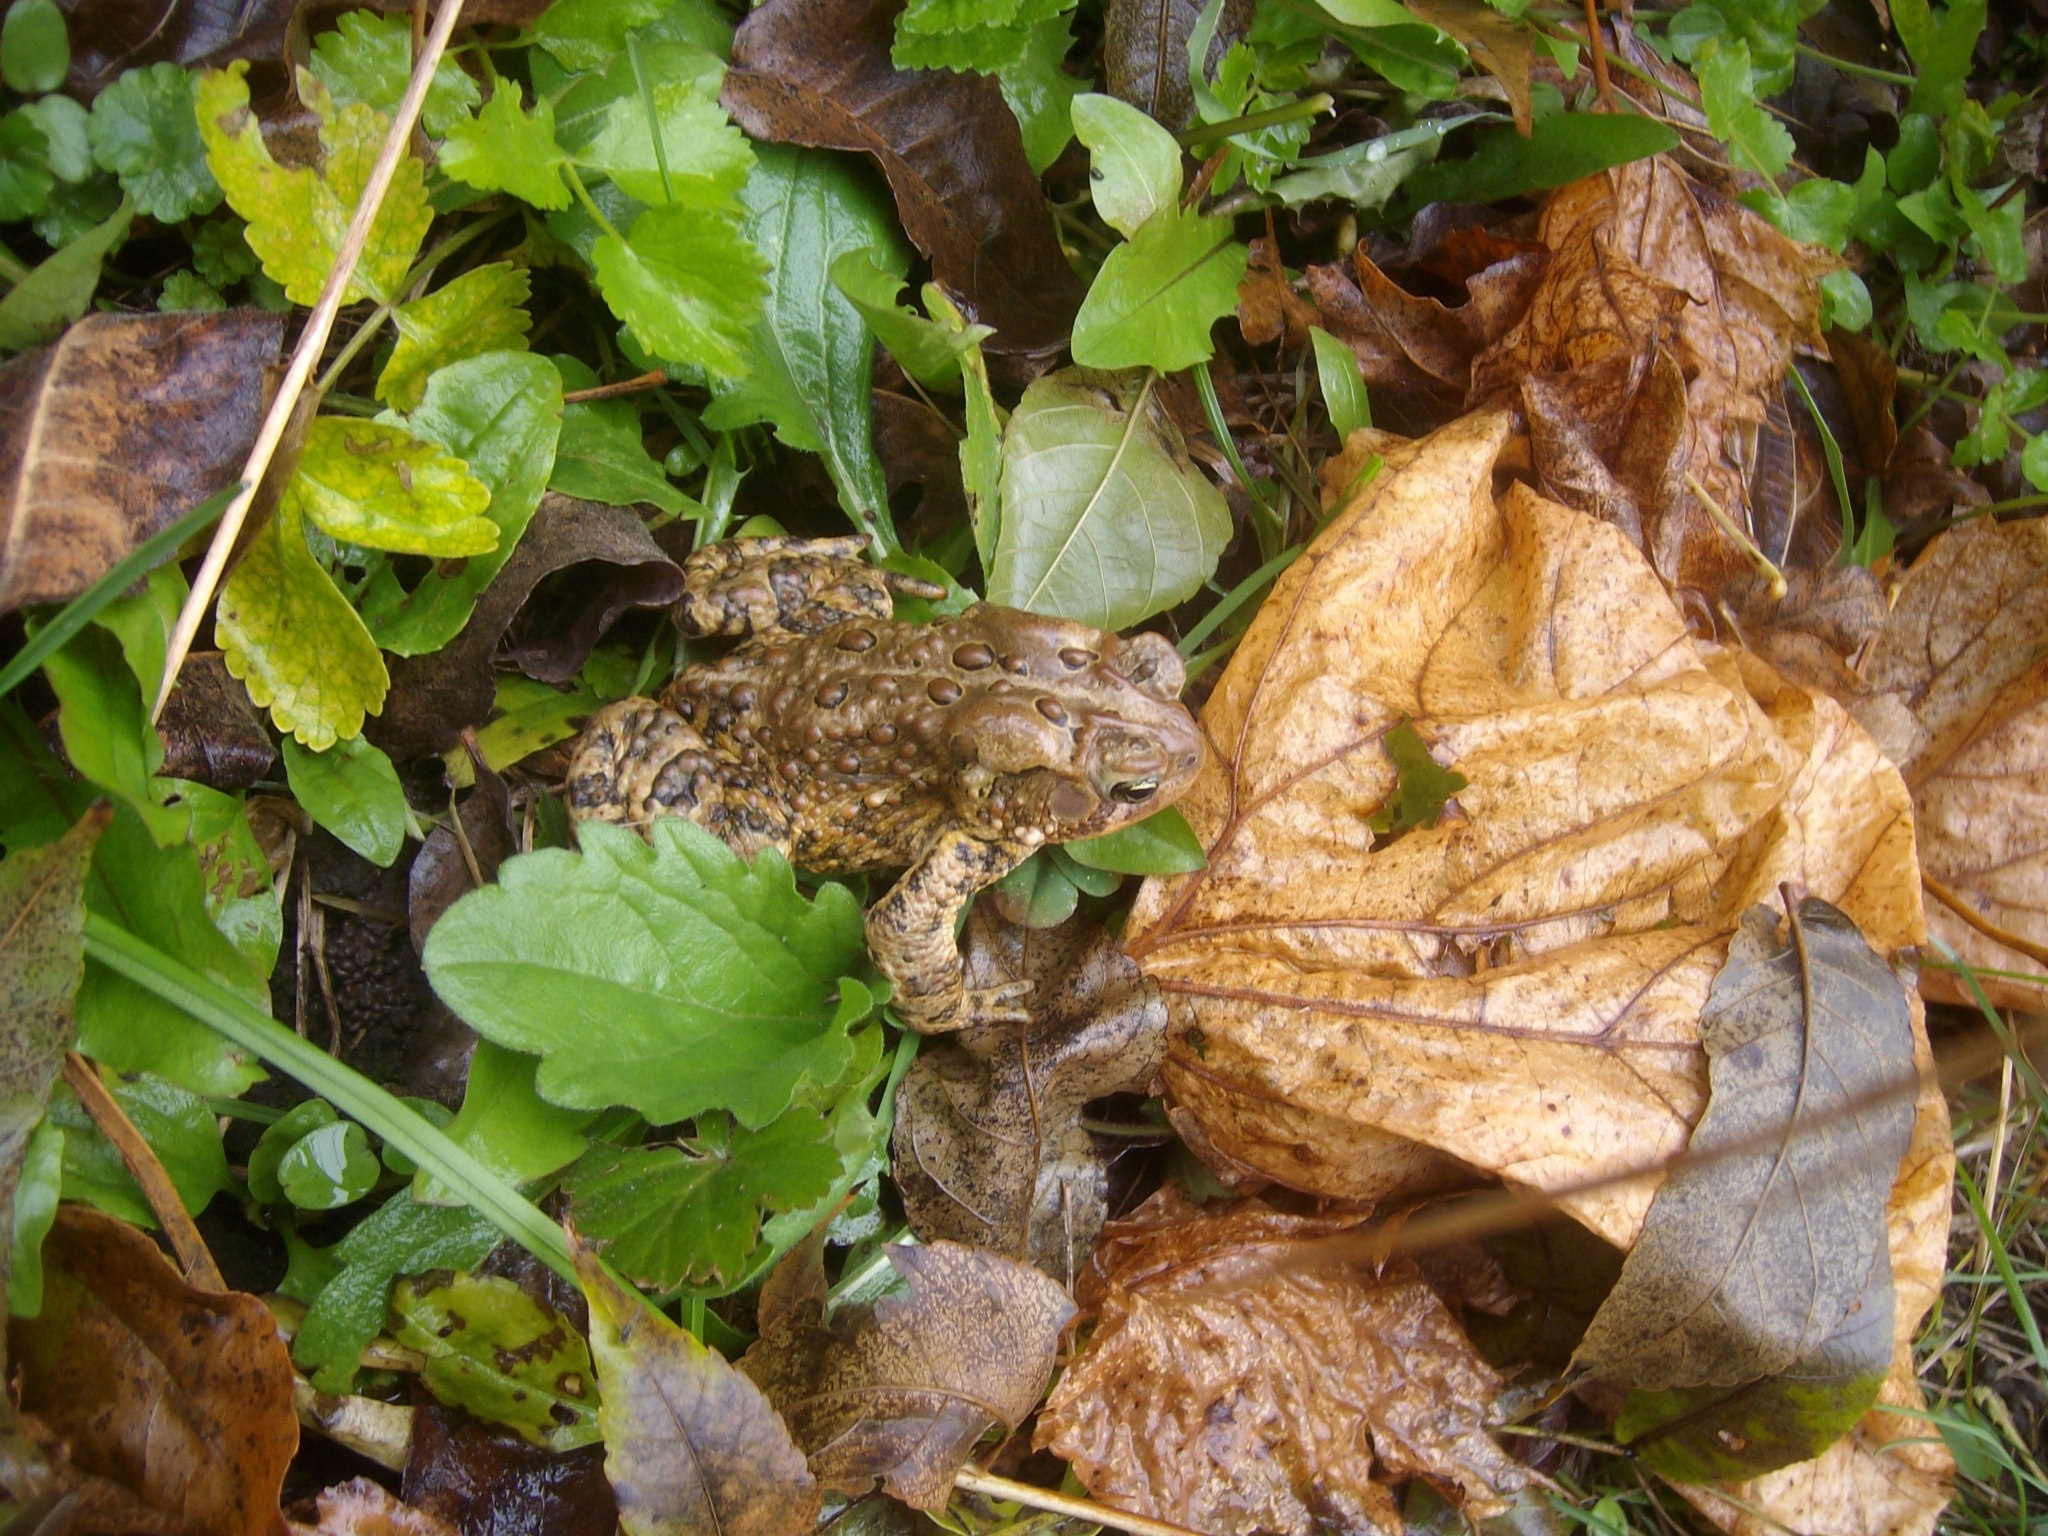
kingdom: Animalia
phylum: Chordata
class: Amphibia
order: Anura
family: Bufonidae
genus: Anaxyrus
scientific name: Anaxyrus americanus
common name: American toad
